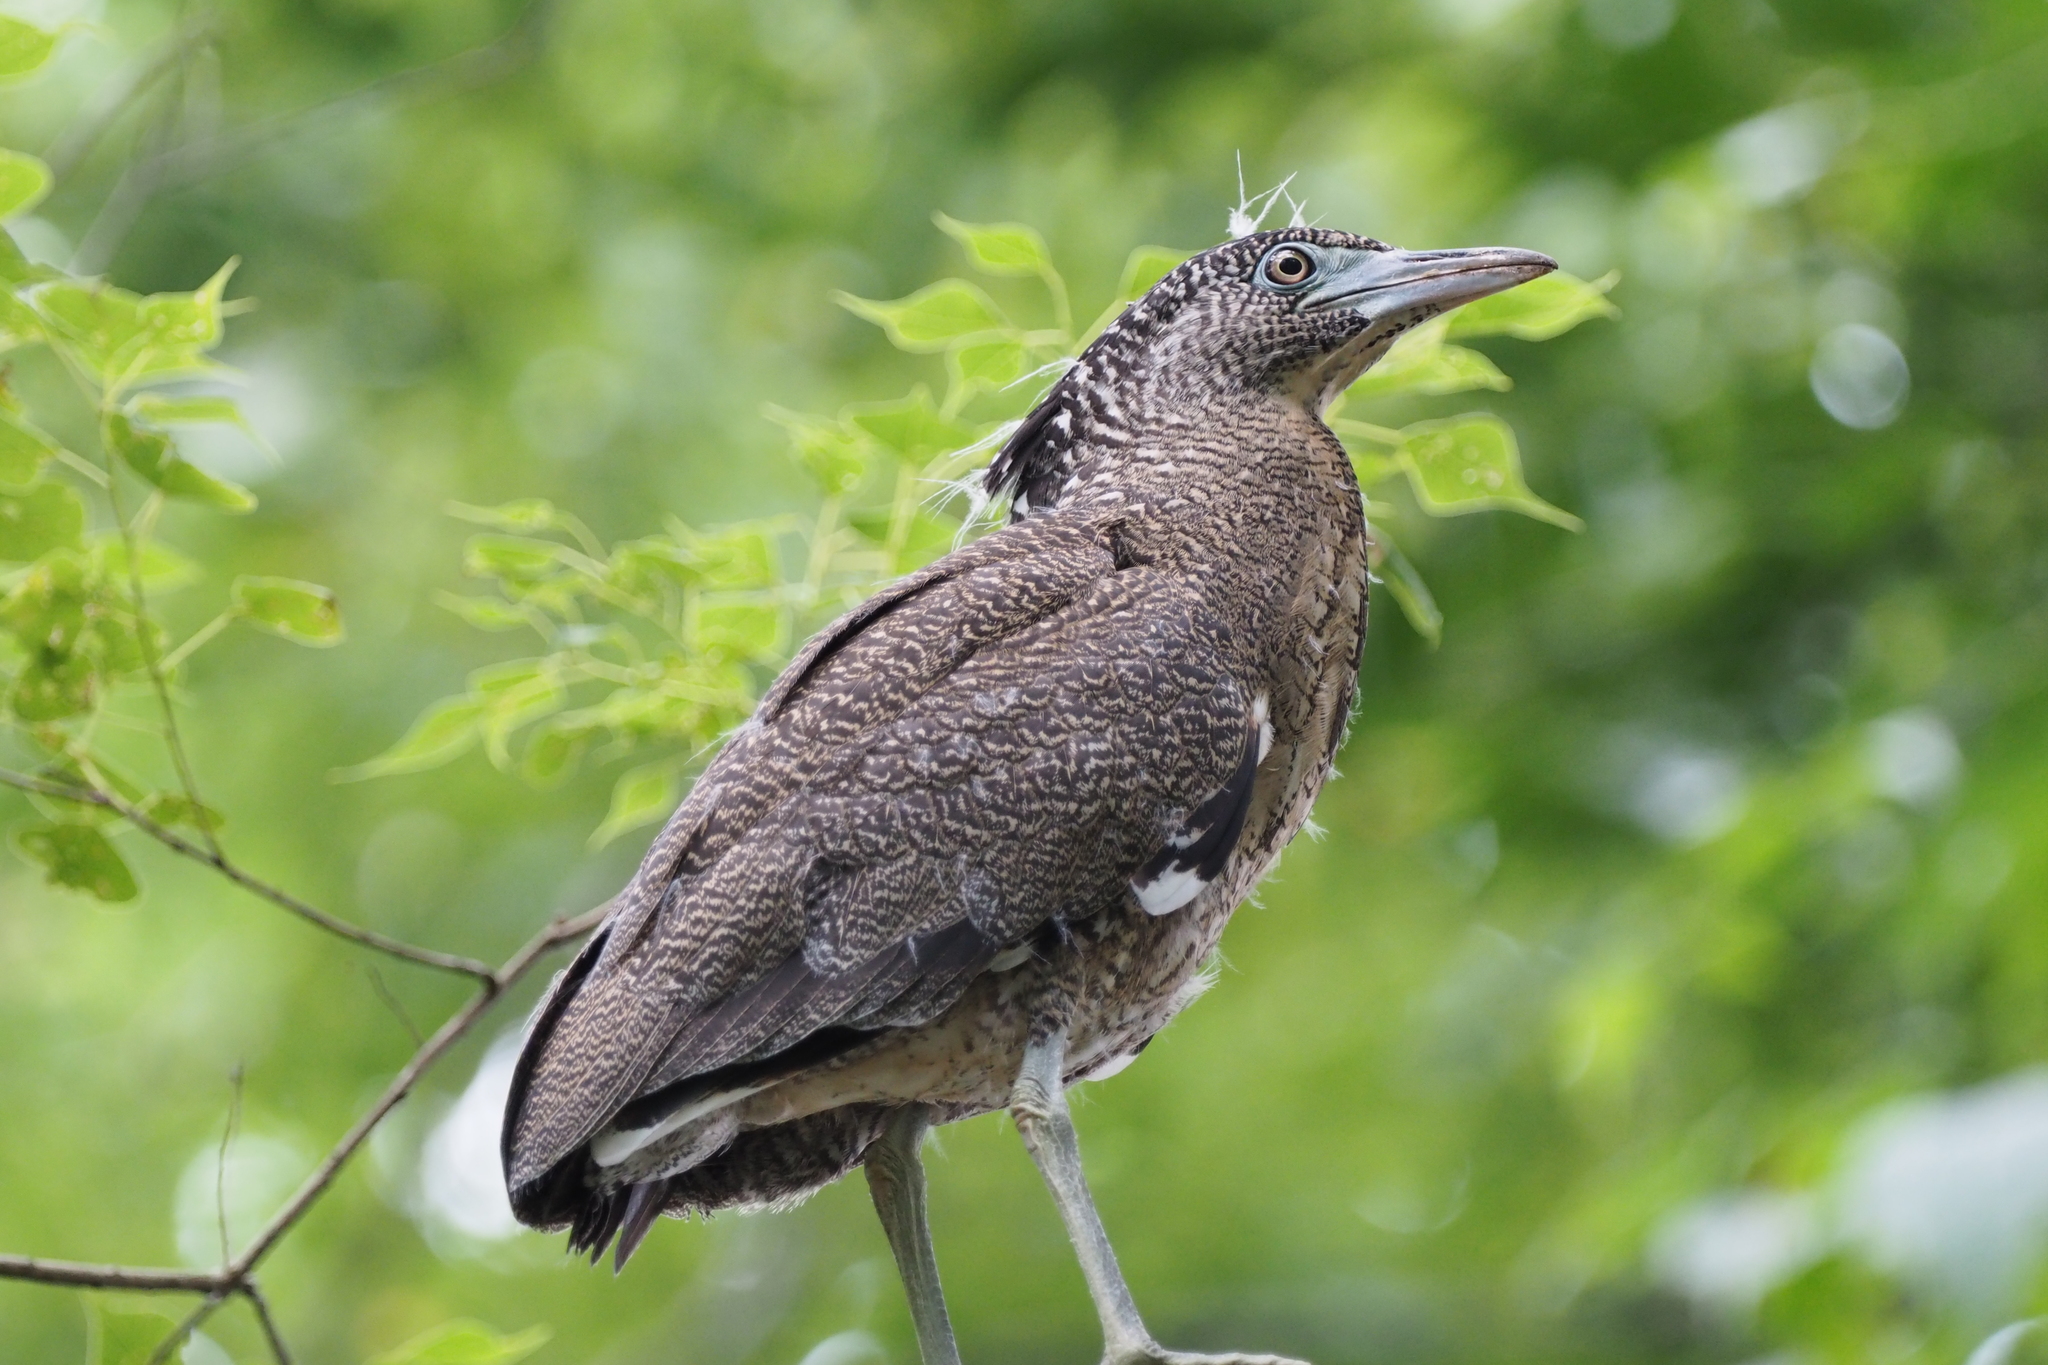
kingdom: Animalia
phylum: Chordata
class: Aves
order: Pelecaniformes
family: Ardeidae
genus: Gorsachius
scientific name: Gorsachius melanolophus
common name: Malayan night heron
